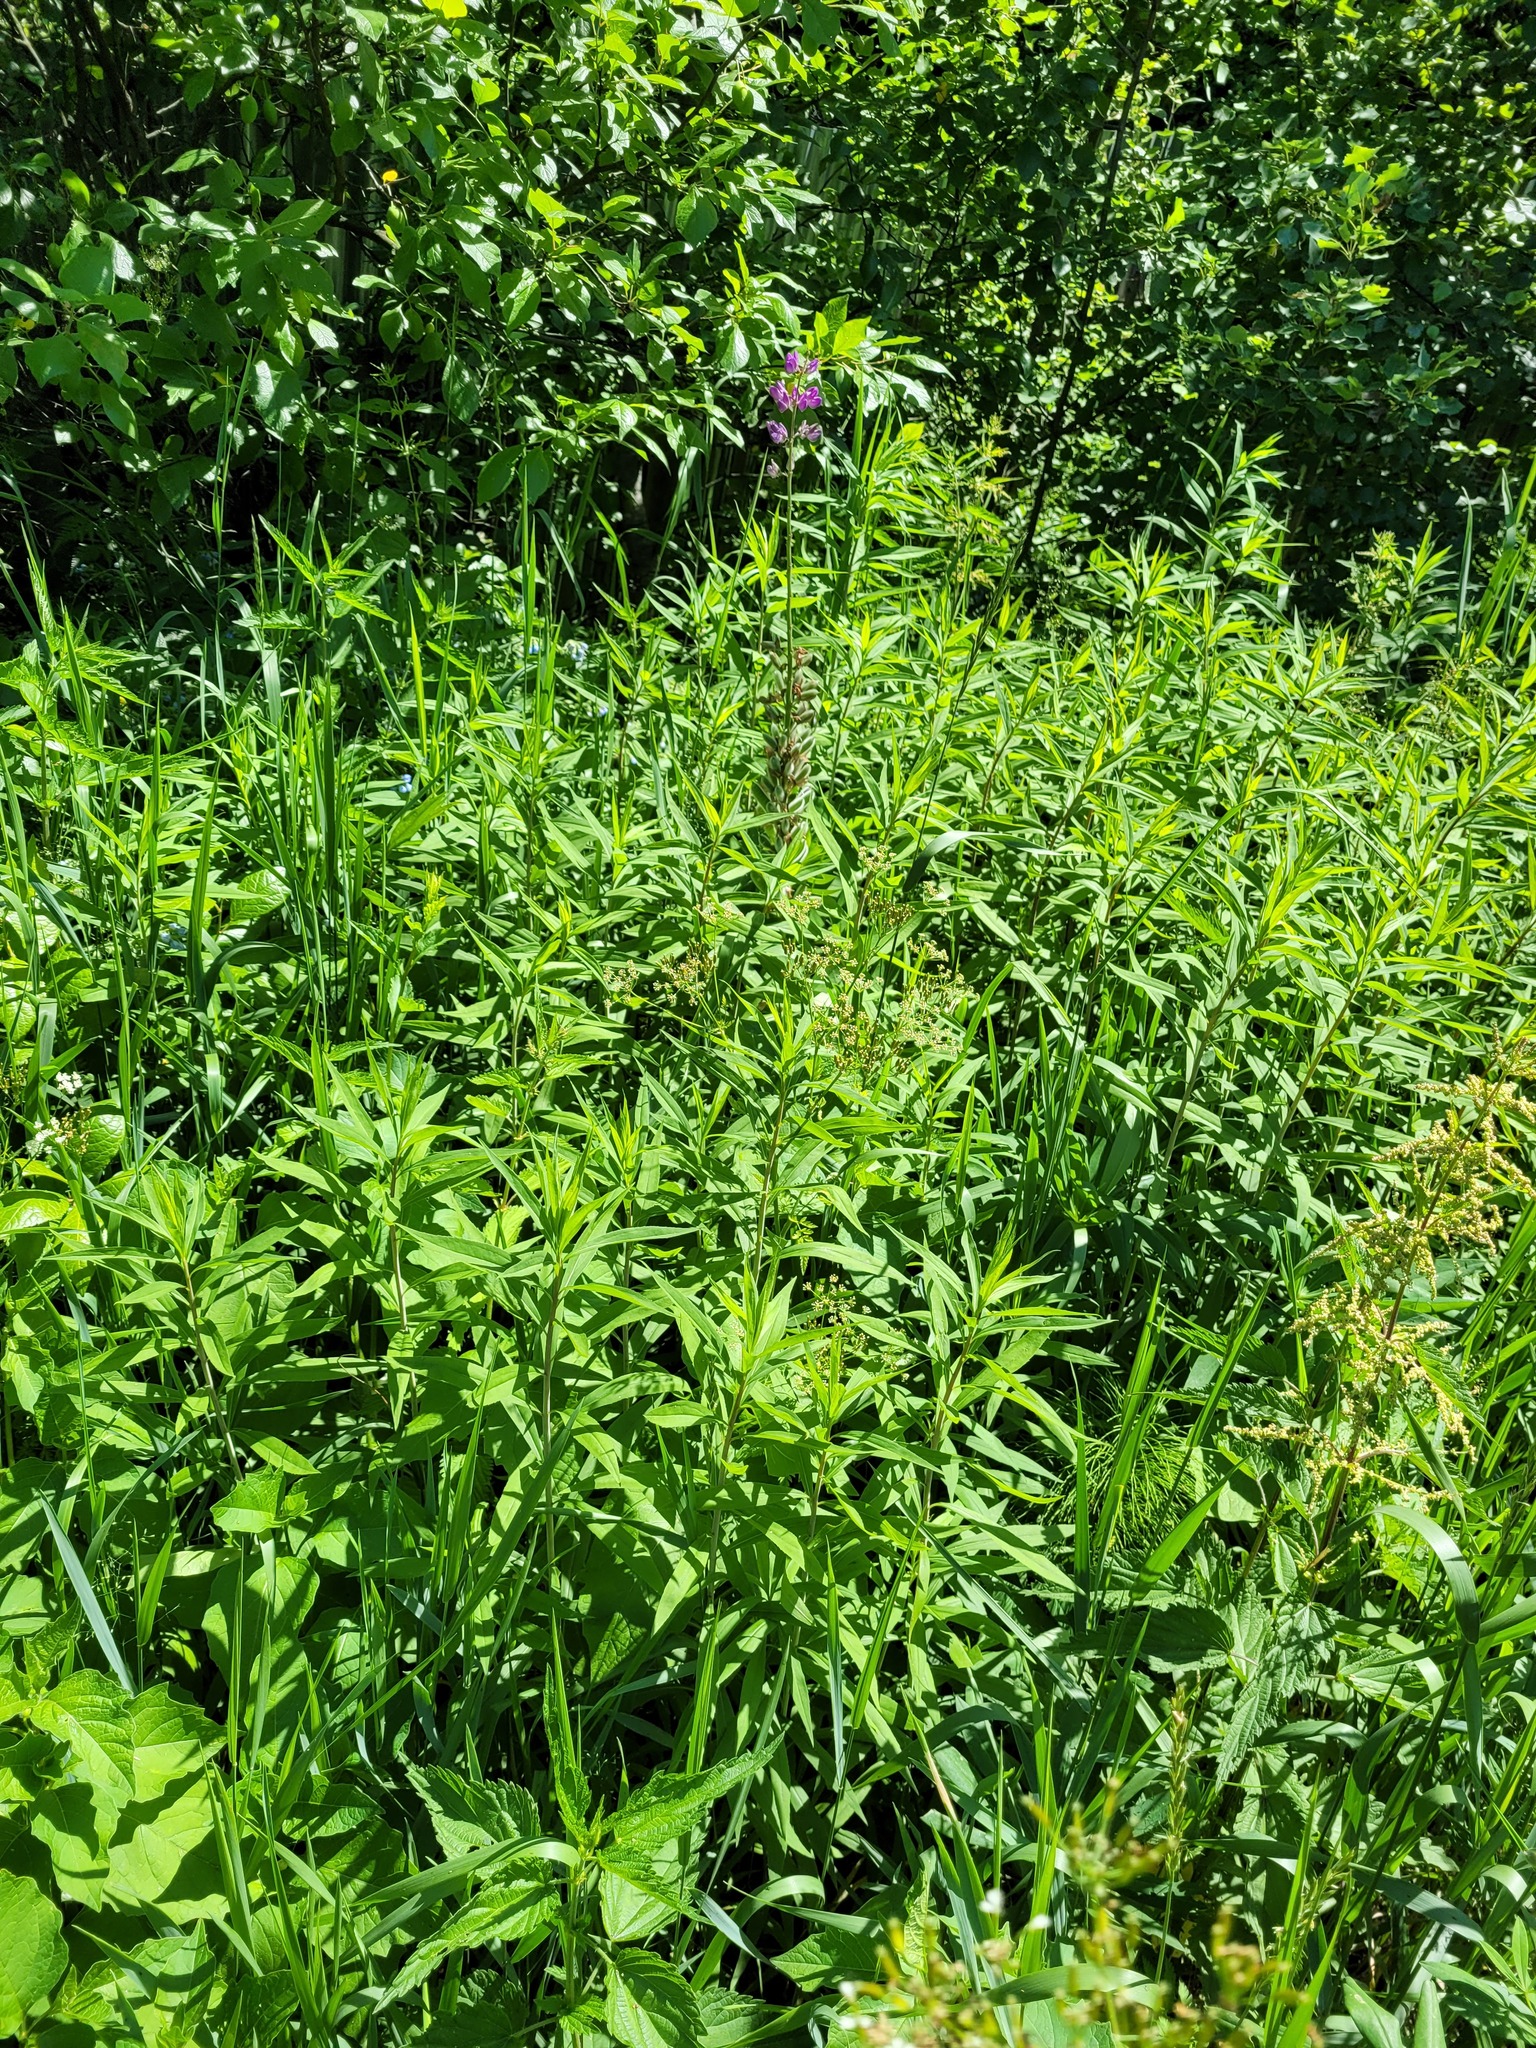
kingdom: Plantae
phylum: Tracheophyta
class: Magnoliopsida
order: Asterales
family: Asteraceae
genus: Solidago
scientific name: Solidago gigantea
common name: Giant goldenrod
